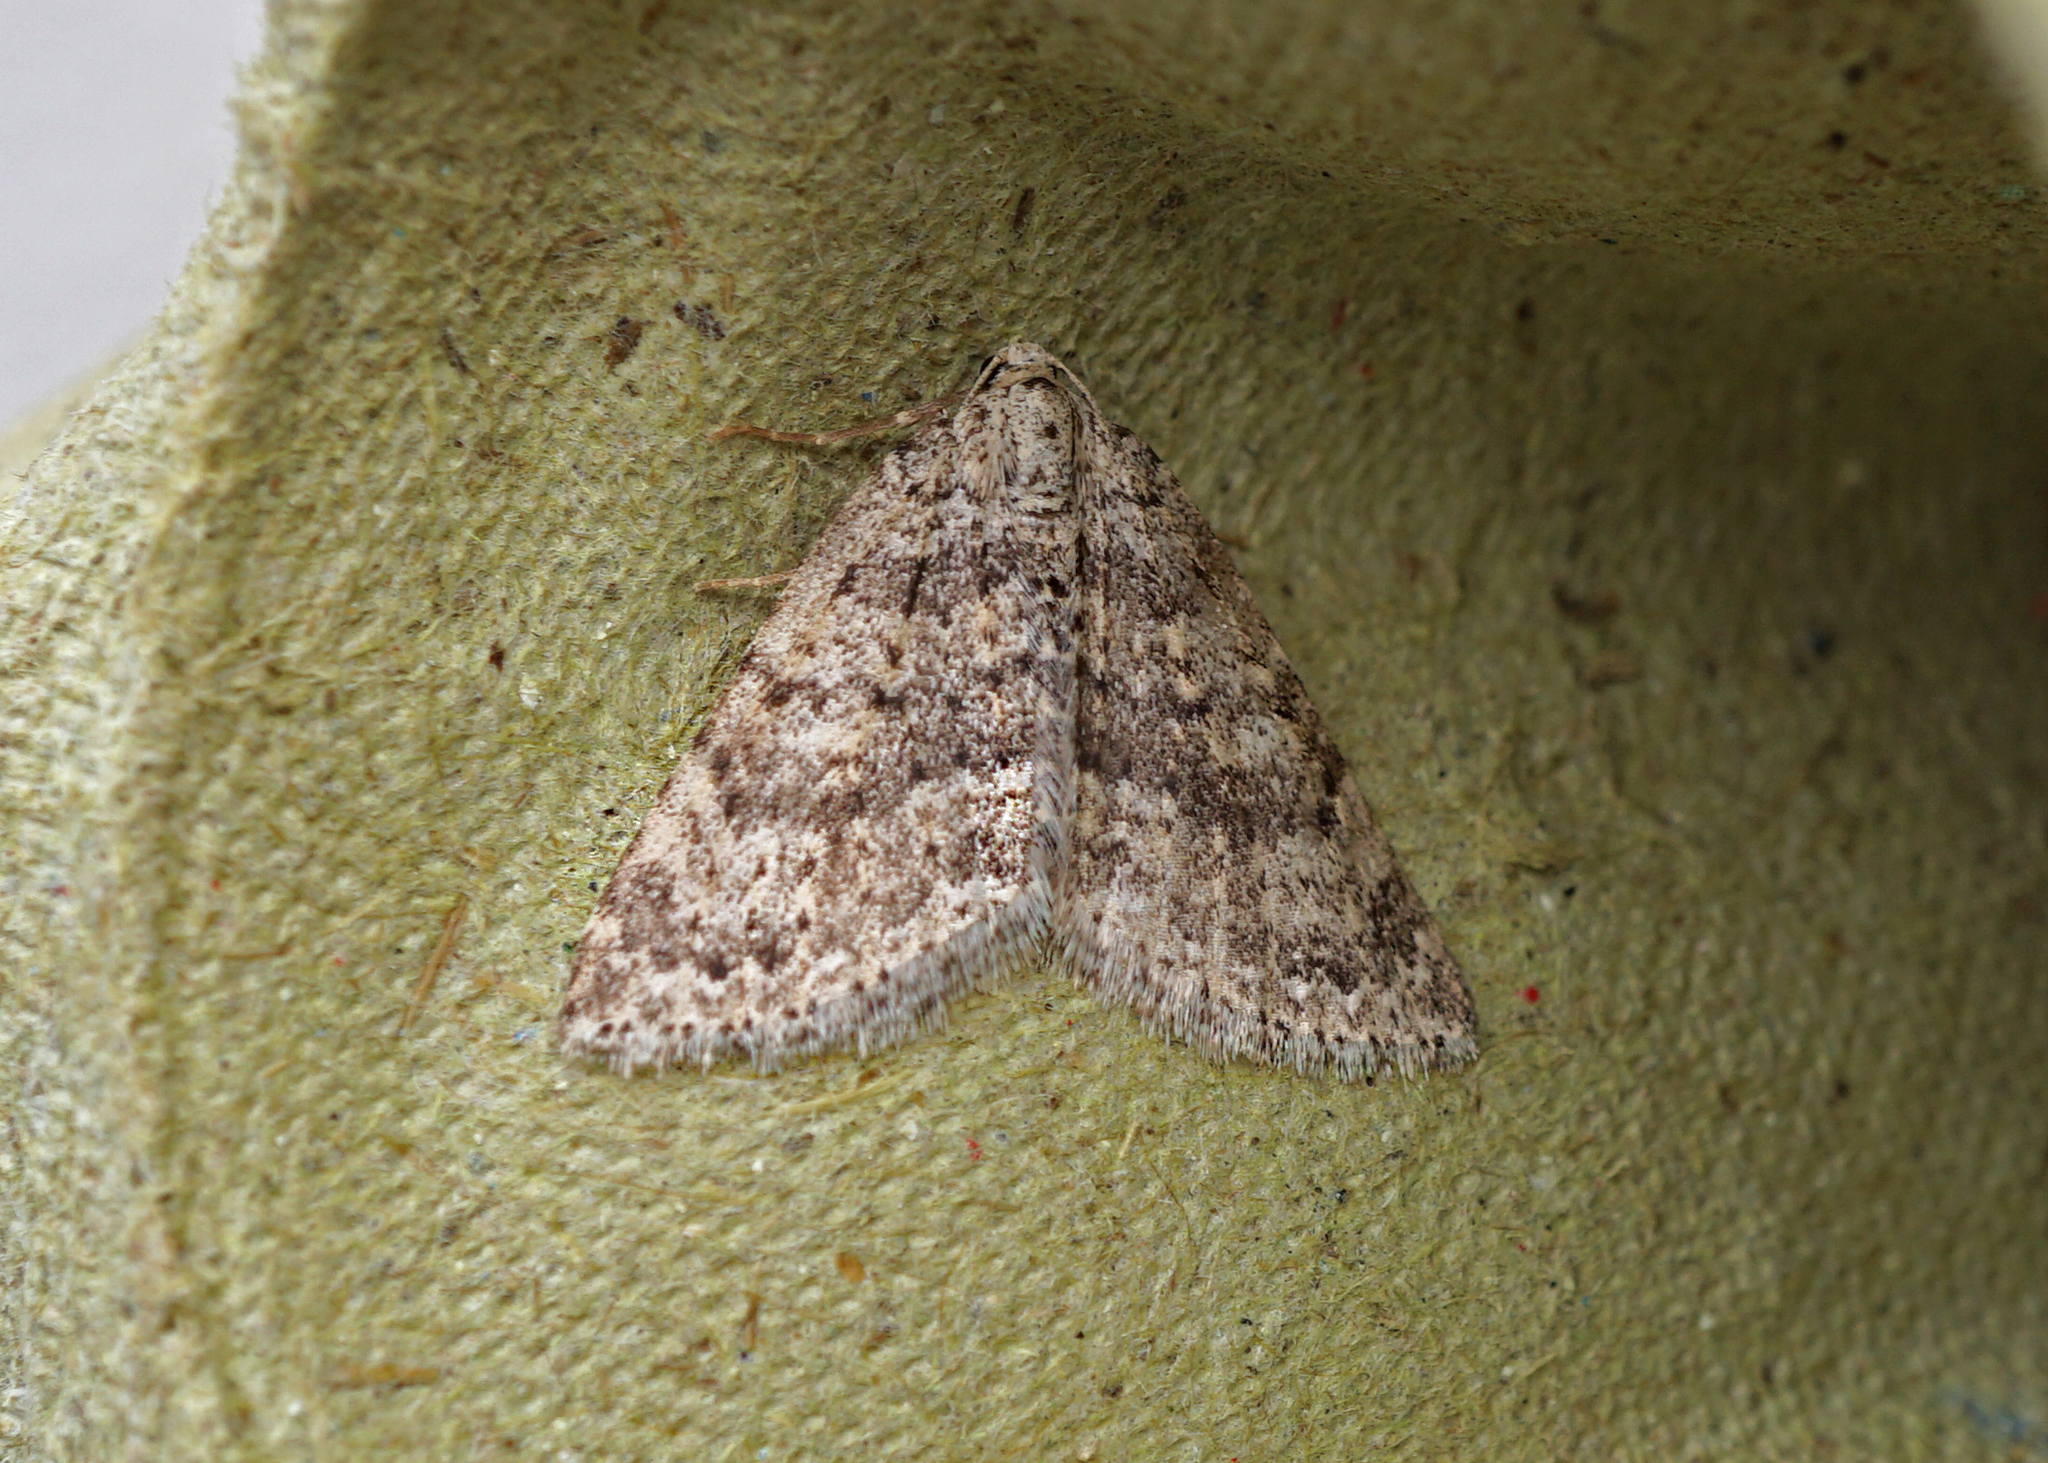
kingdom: Animalia
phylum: Arthropoda
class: Insecta
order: Lepidoptera
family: Geometridae
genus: Colostygia
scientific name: Colostygia multistrigaria
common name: Mottled grey
